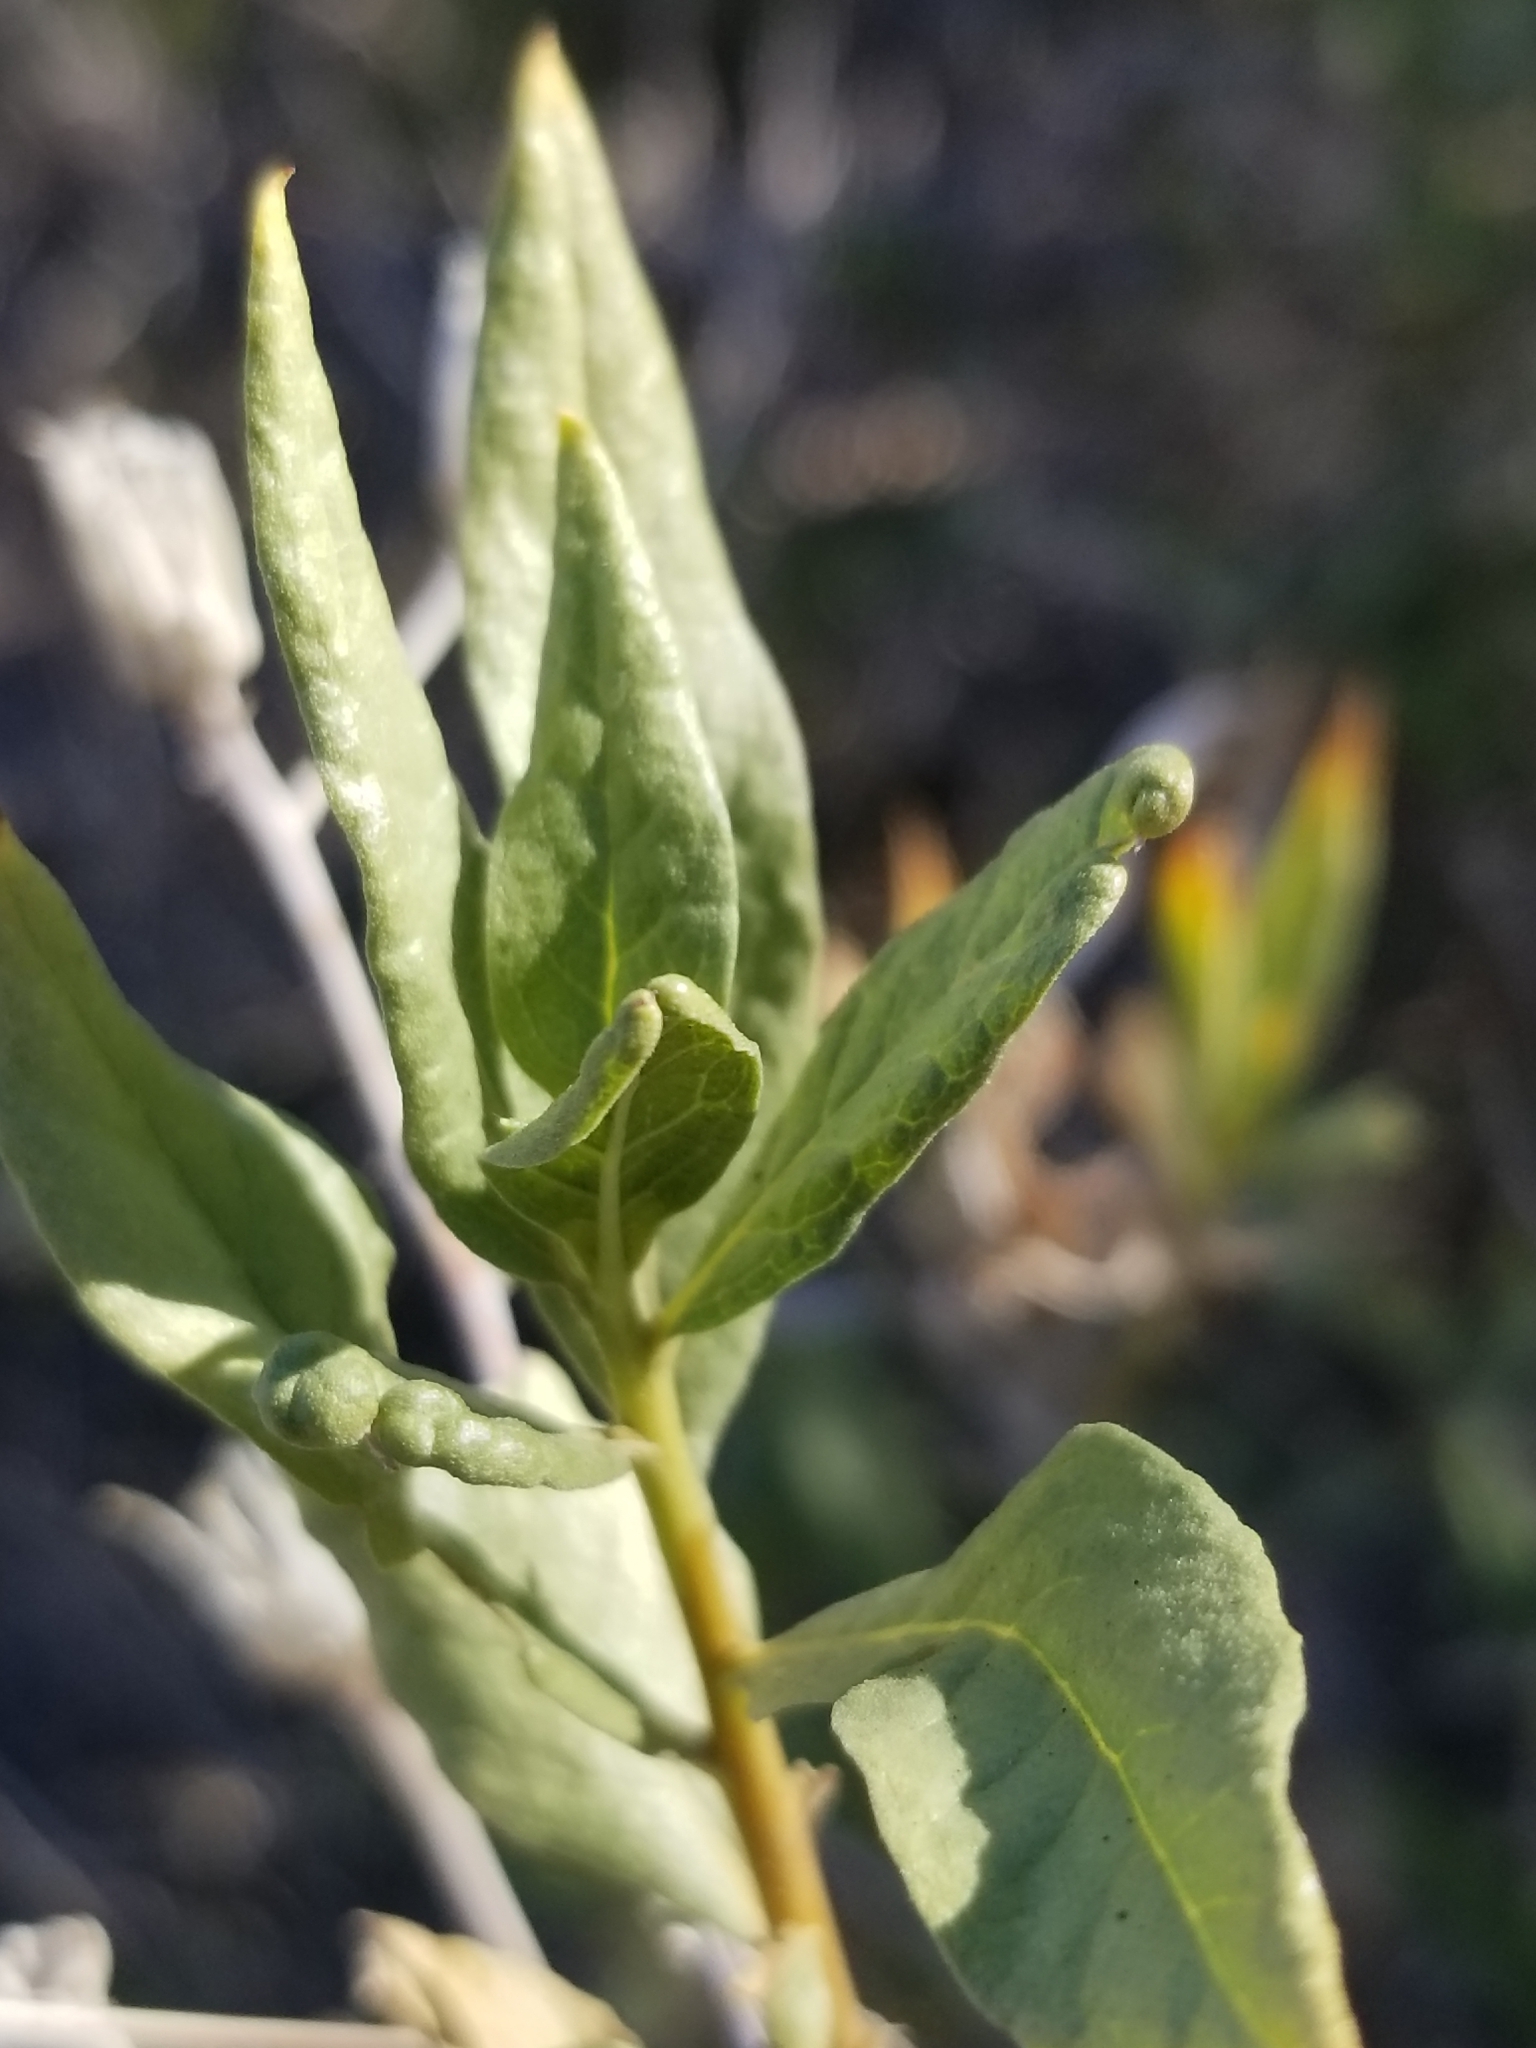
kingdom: Plantae
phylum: Tracheophyta
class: Magnoliopsida
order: Asterales
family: Asteraceae
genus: Trixis
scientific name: Trixis californica
